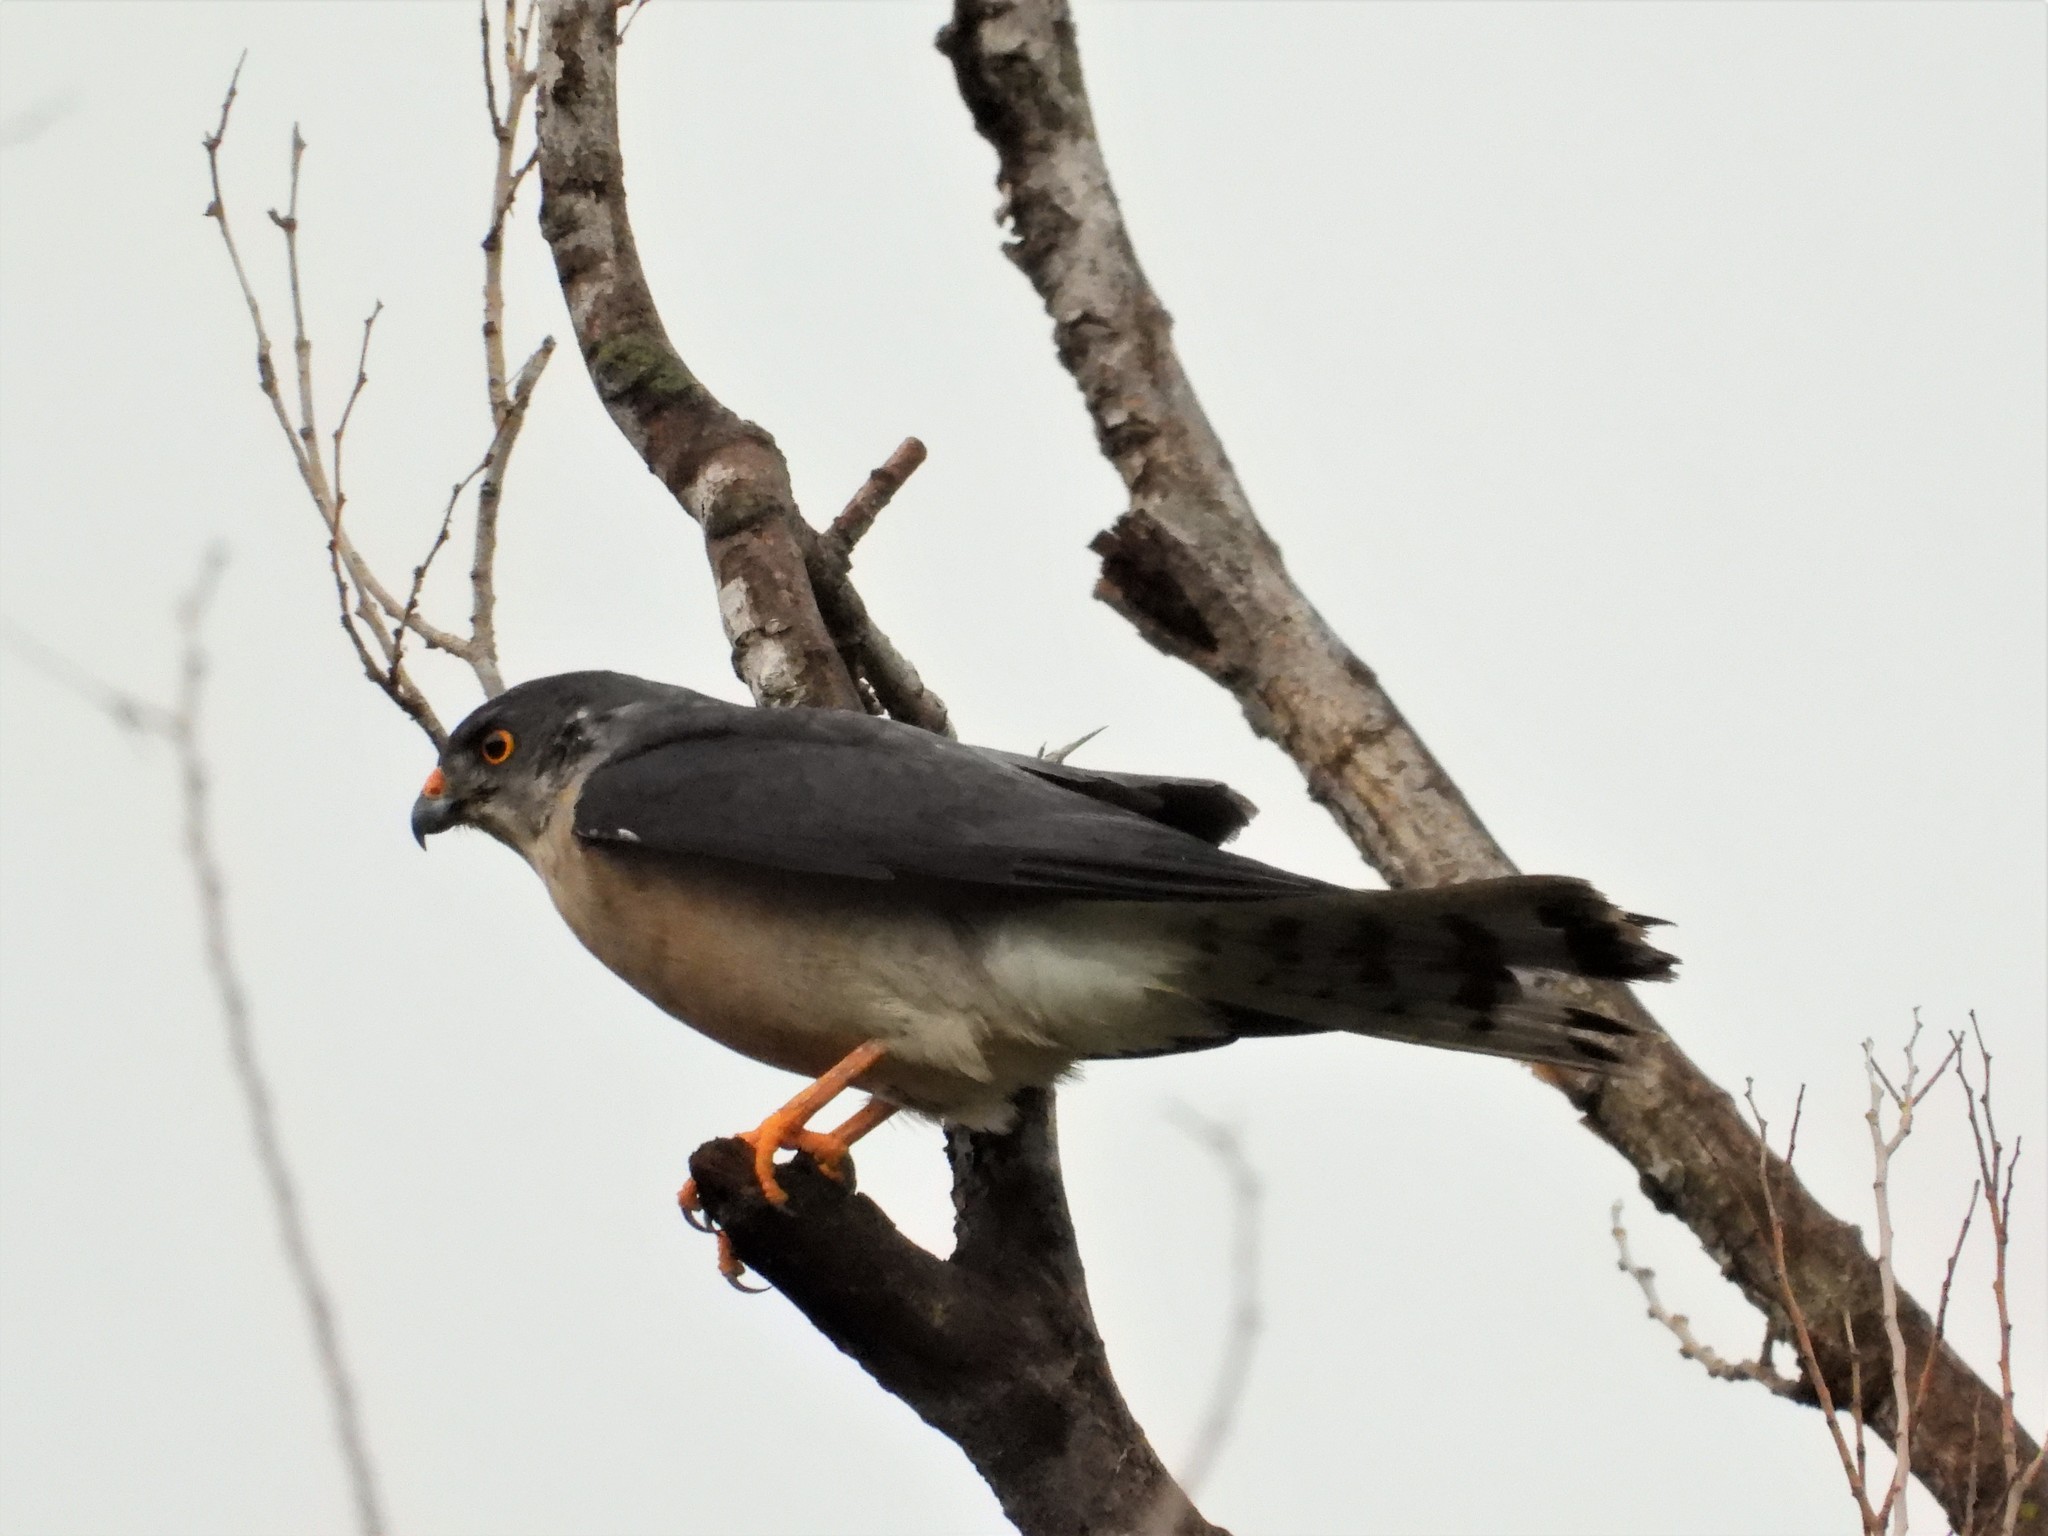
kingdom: Animalia
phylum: Chordata
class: Aves
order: Accipitriformes
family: Accipitridae
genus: Accipiter
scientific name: Accipiter soloensis
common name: Chinese sparrowhawk
